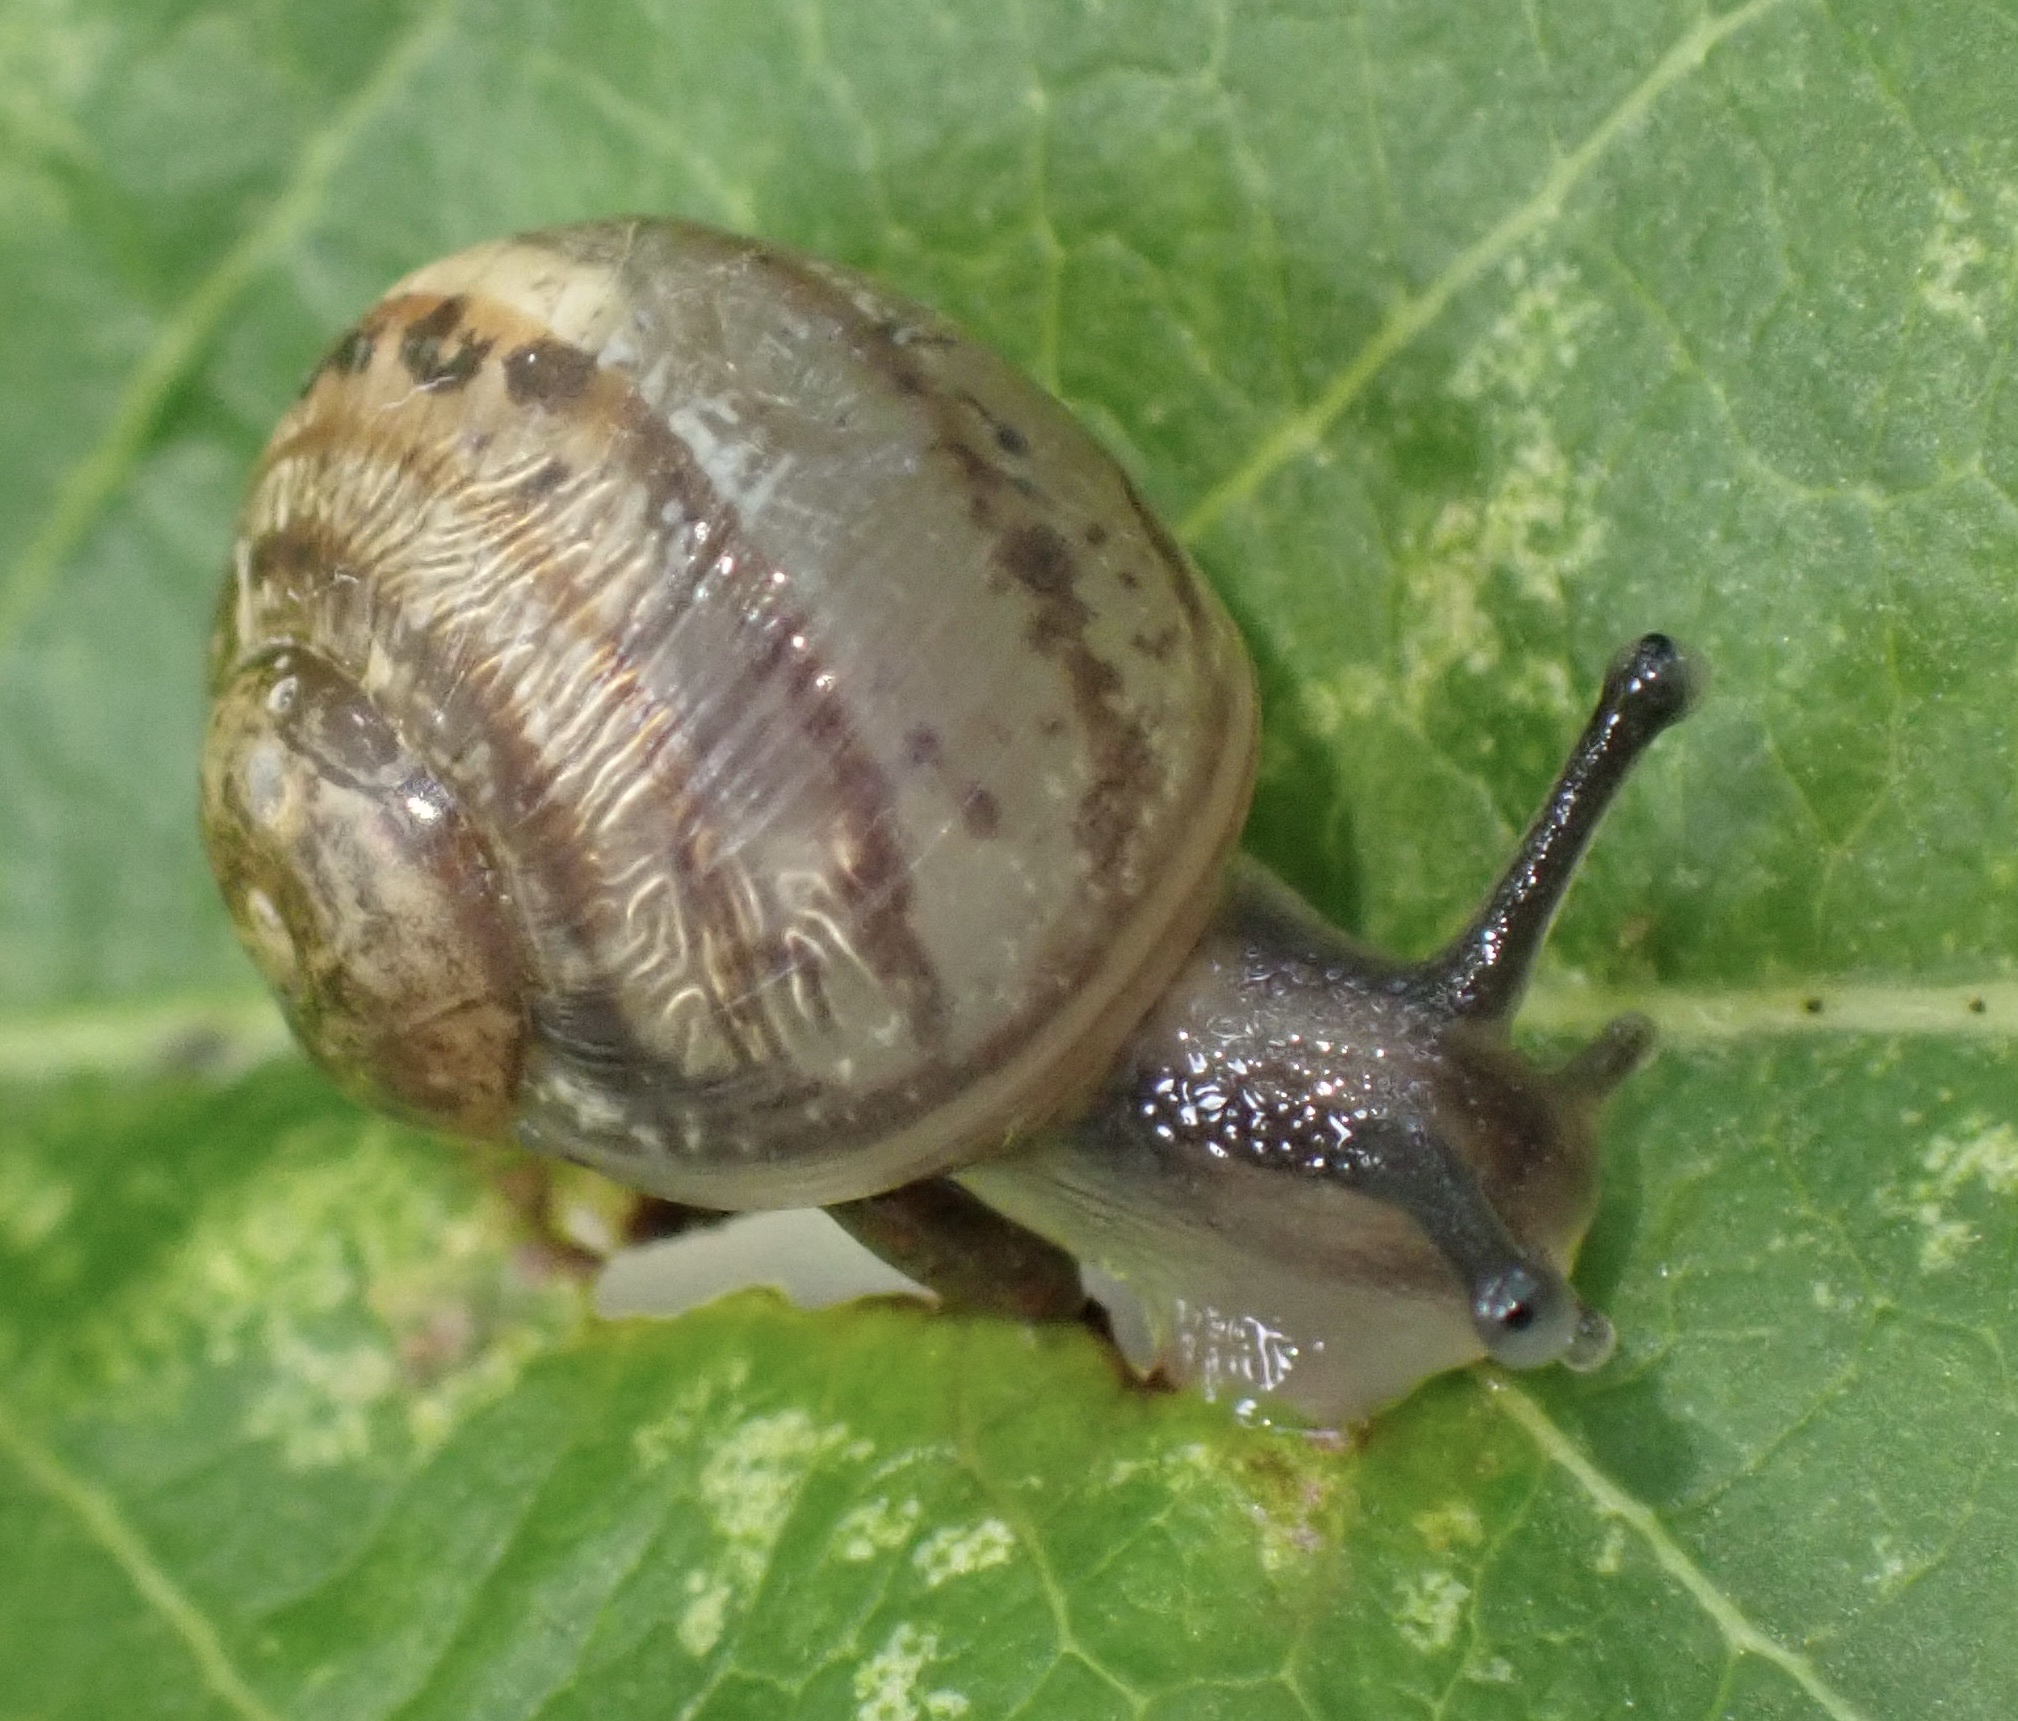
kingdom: Animalia
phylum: Mollusca
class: Gastropoda
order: Stylommatophora
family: Helicidae
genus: Cornu
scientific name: Cornu aspersum
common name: Brown garden snail
